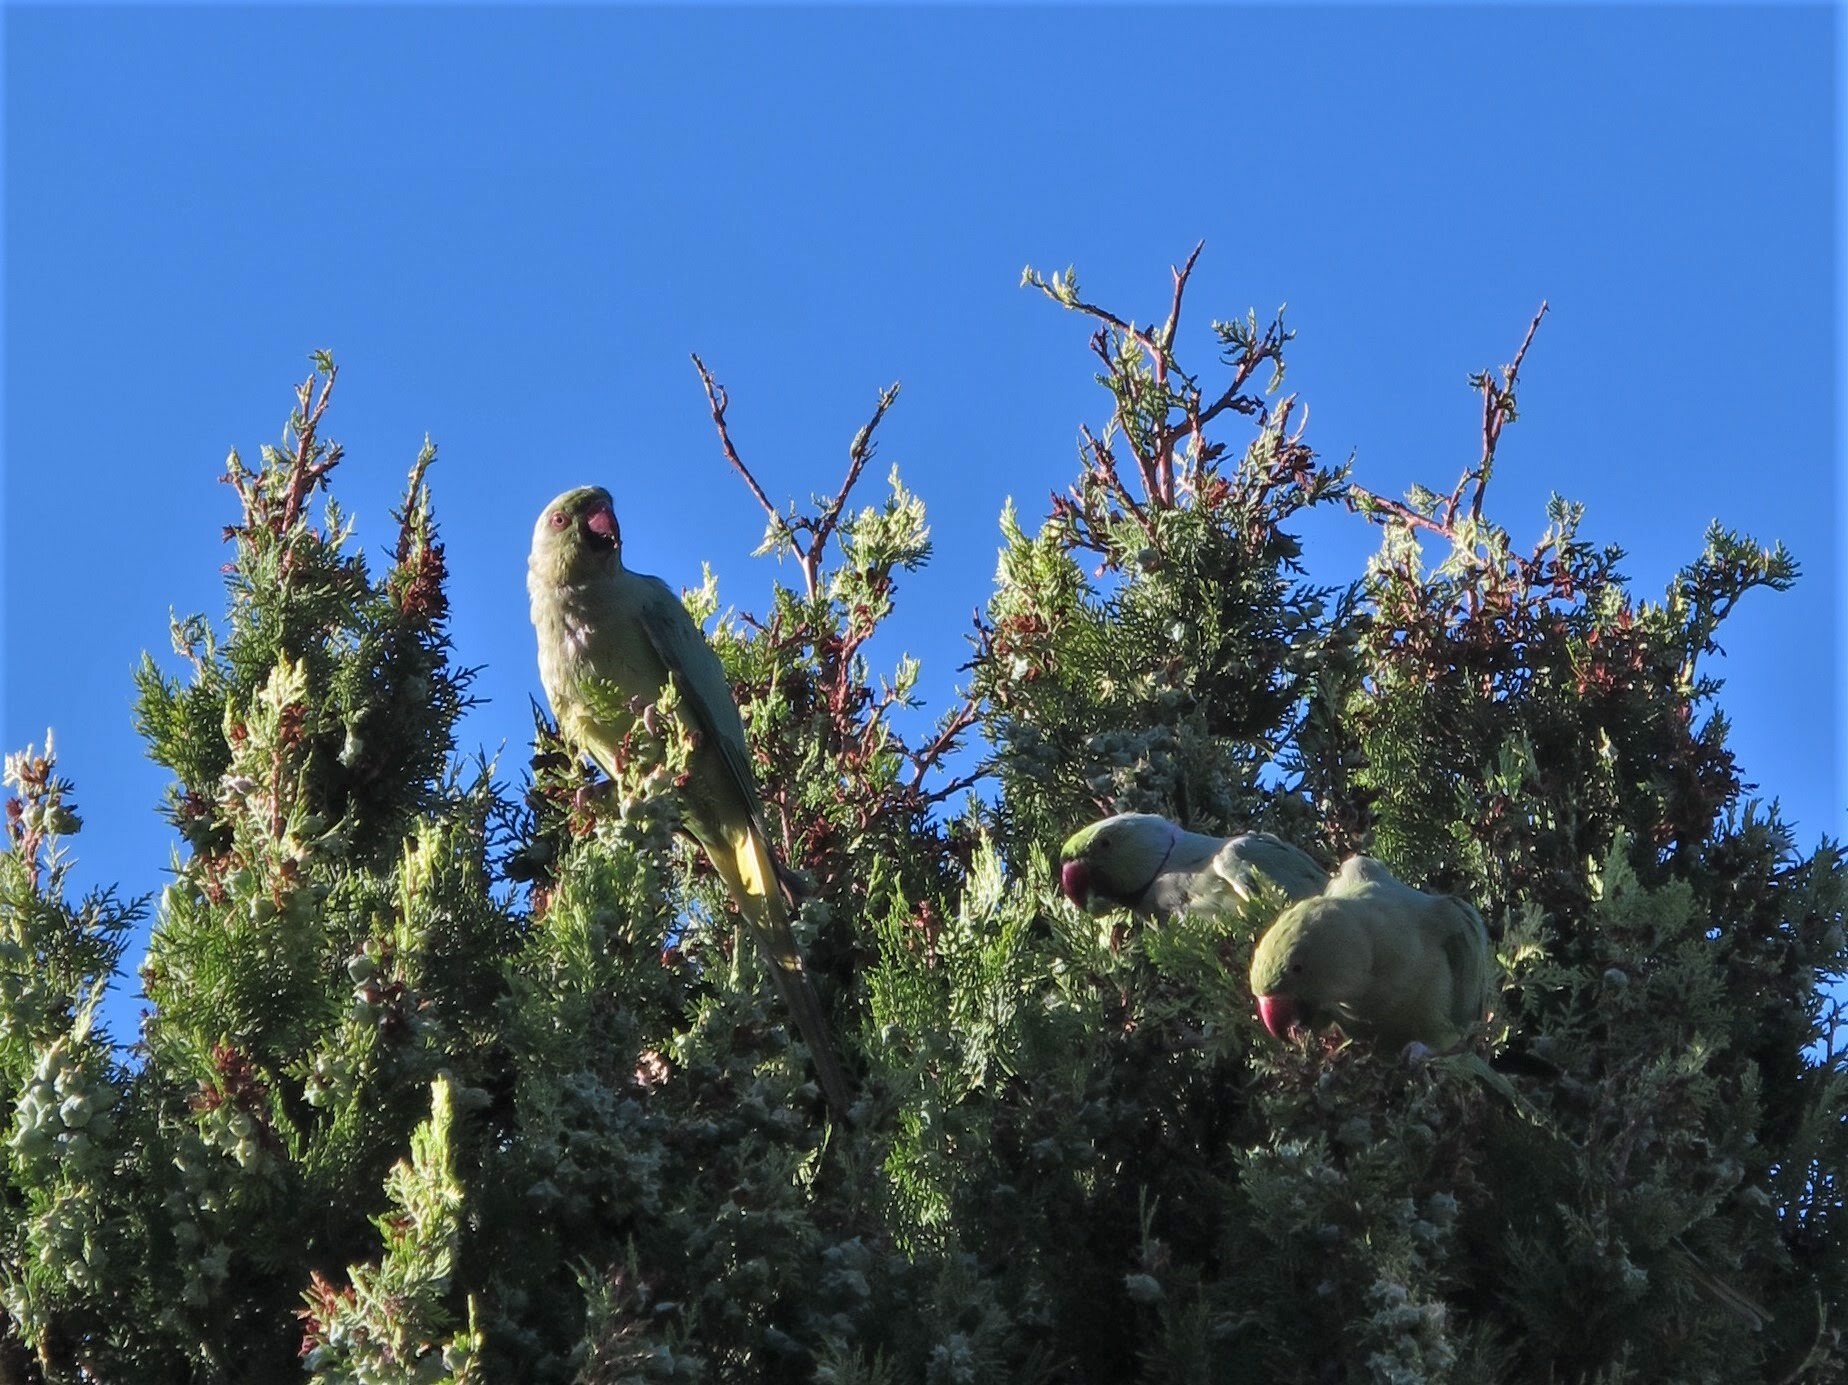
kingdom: Animalia
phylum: Chordata
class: Aves
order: Psittaciformes
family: Psittacidae
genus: Psittacula
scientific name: Psittacula krameri
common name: Rose-ringed parakeet
